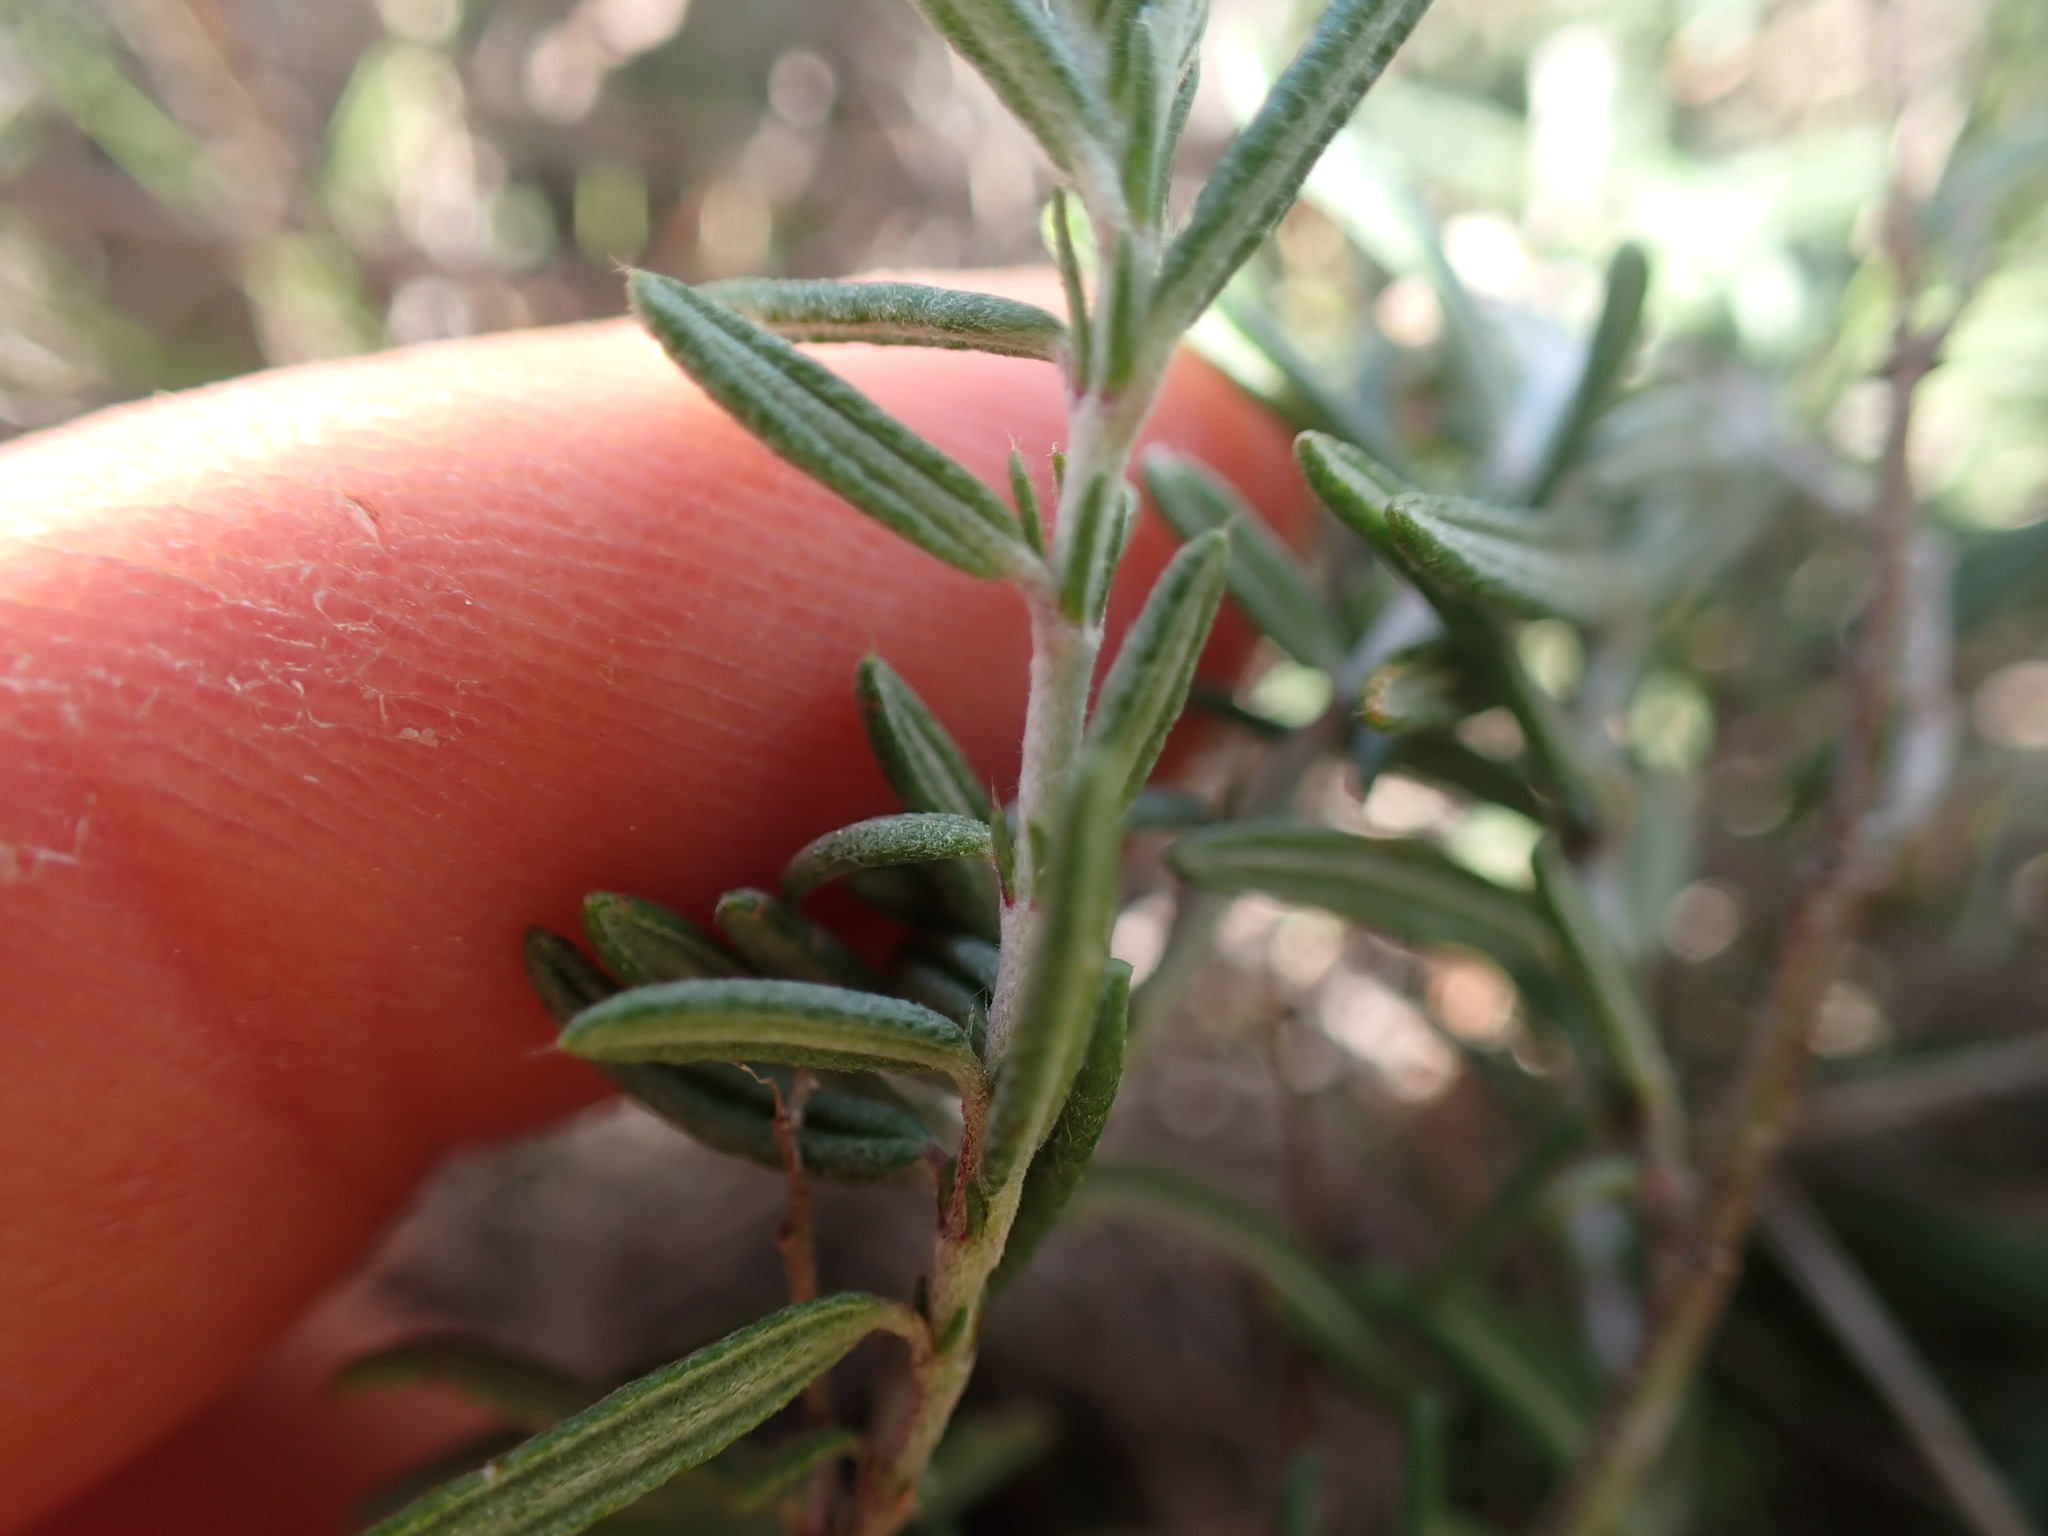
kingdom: Plantae
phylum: Tracheophyta
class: Magnoliopsida
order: Malvales
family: Cistaceae
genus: Helianthemum
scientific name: Helianthemum apenninum
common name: White rock-rose
